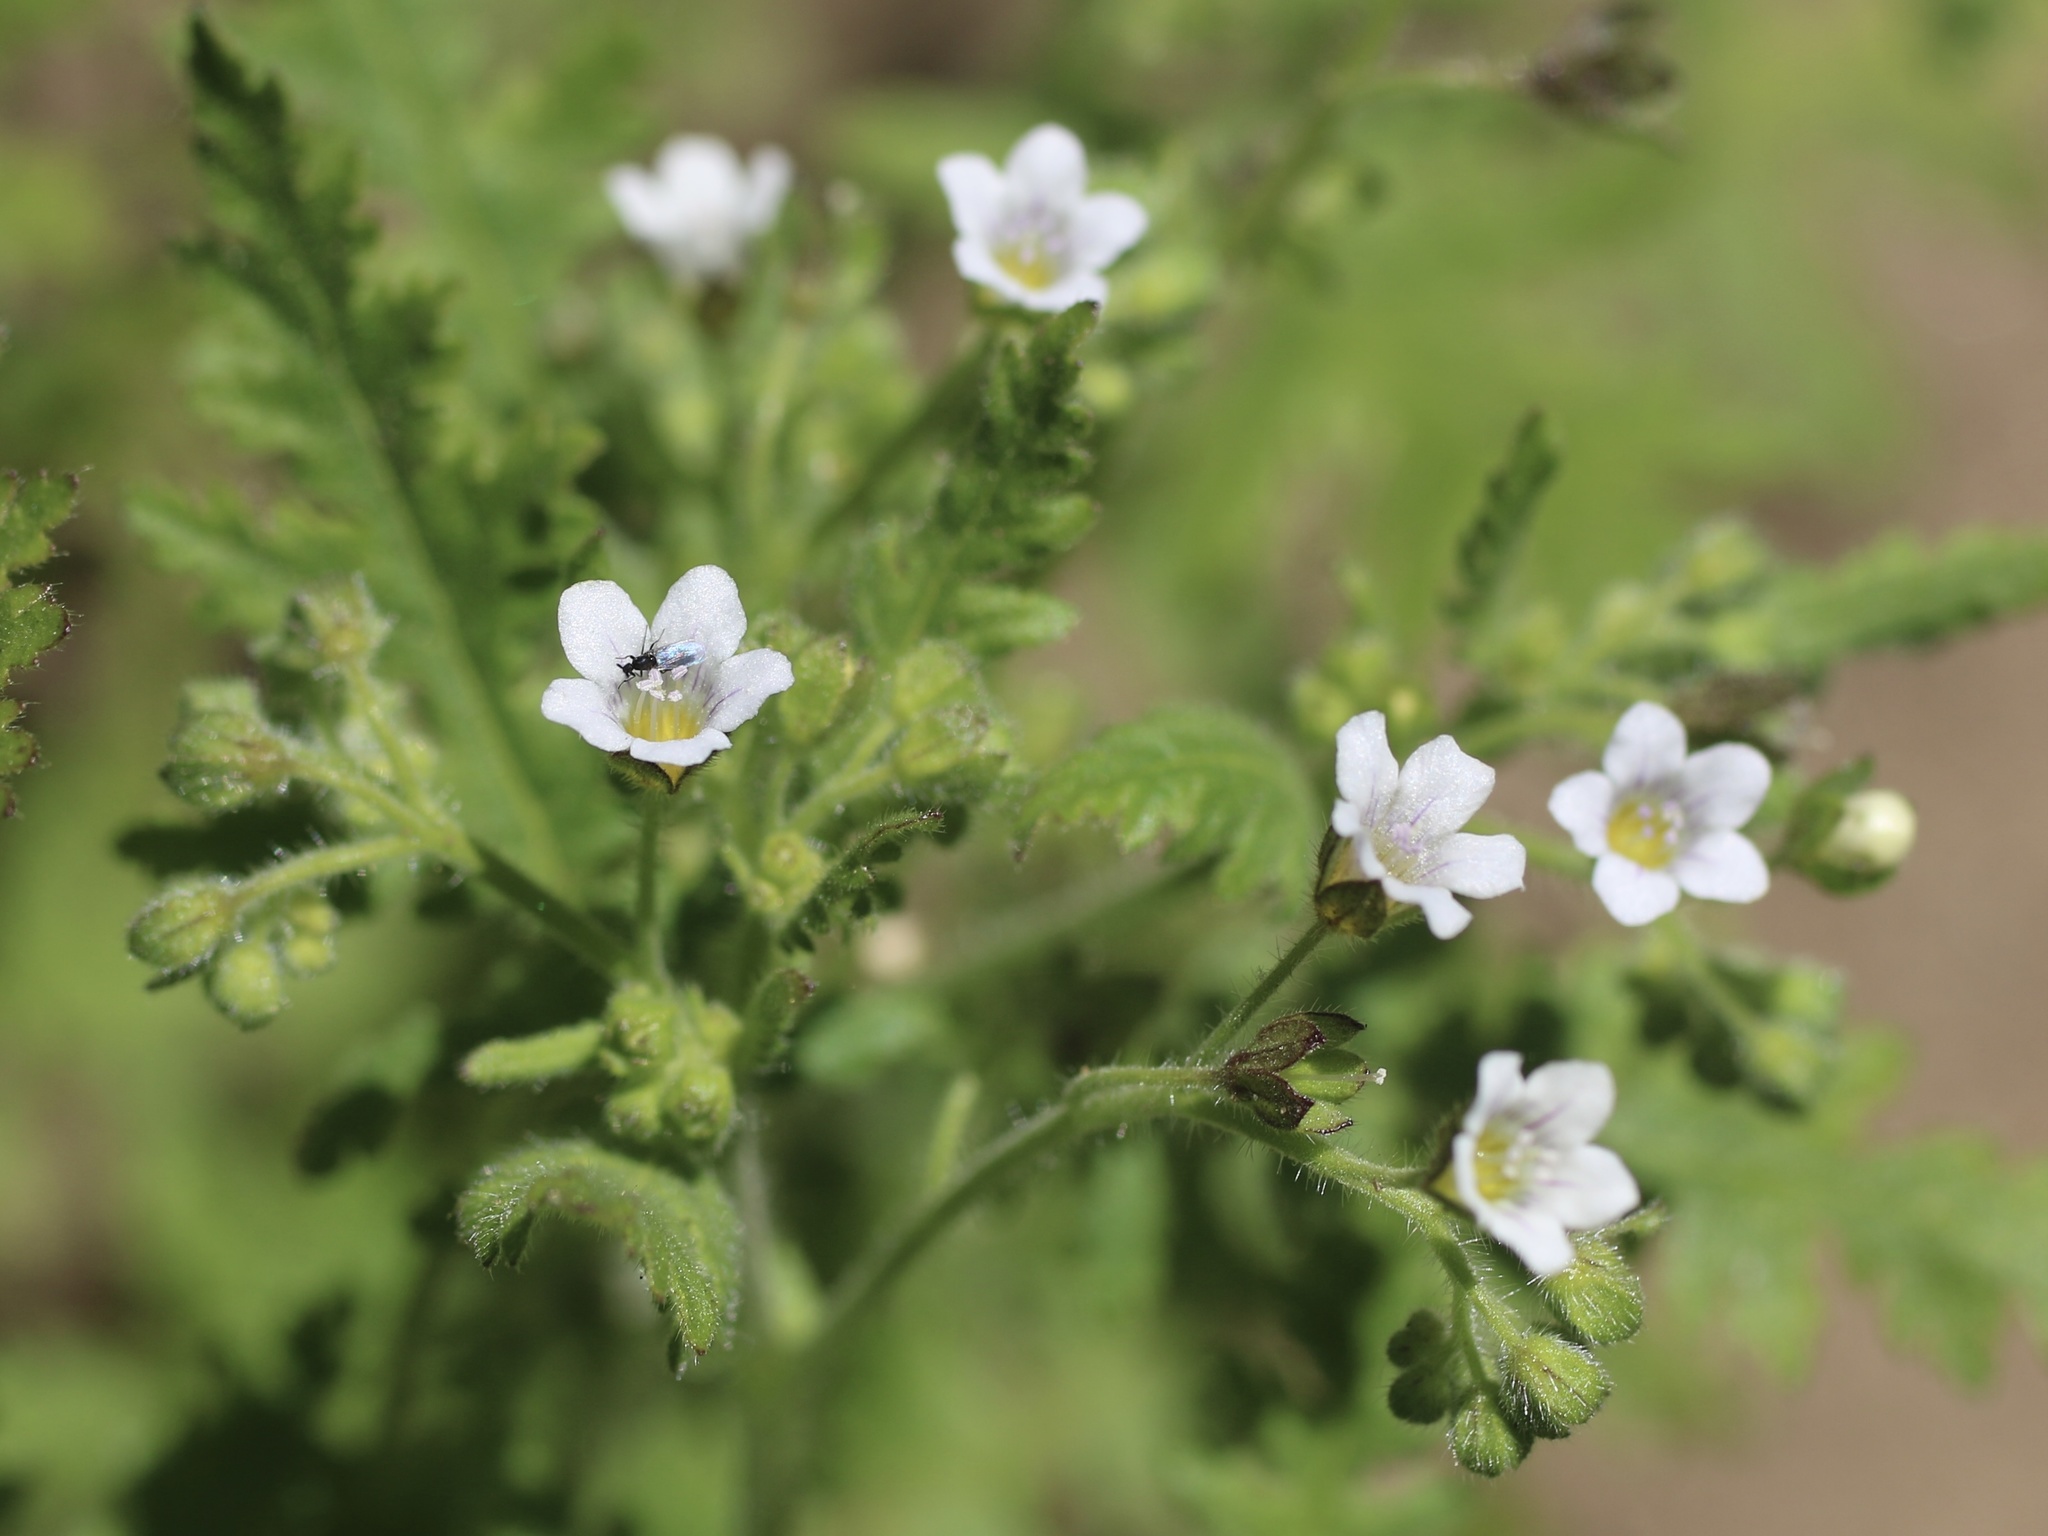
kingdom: Plantae
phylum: Tracheophyta
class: Magnoliopsida
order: Boraginales
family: Hydrophyllaceae
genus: Eucrypta
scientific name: Eucrypta chrysanthemifolia
